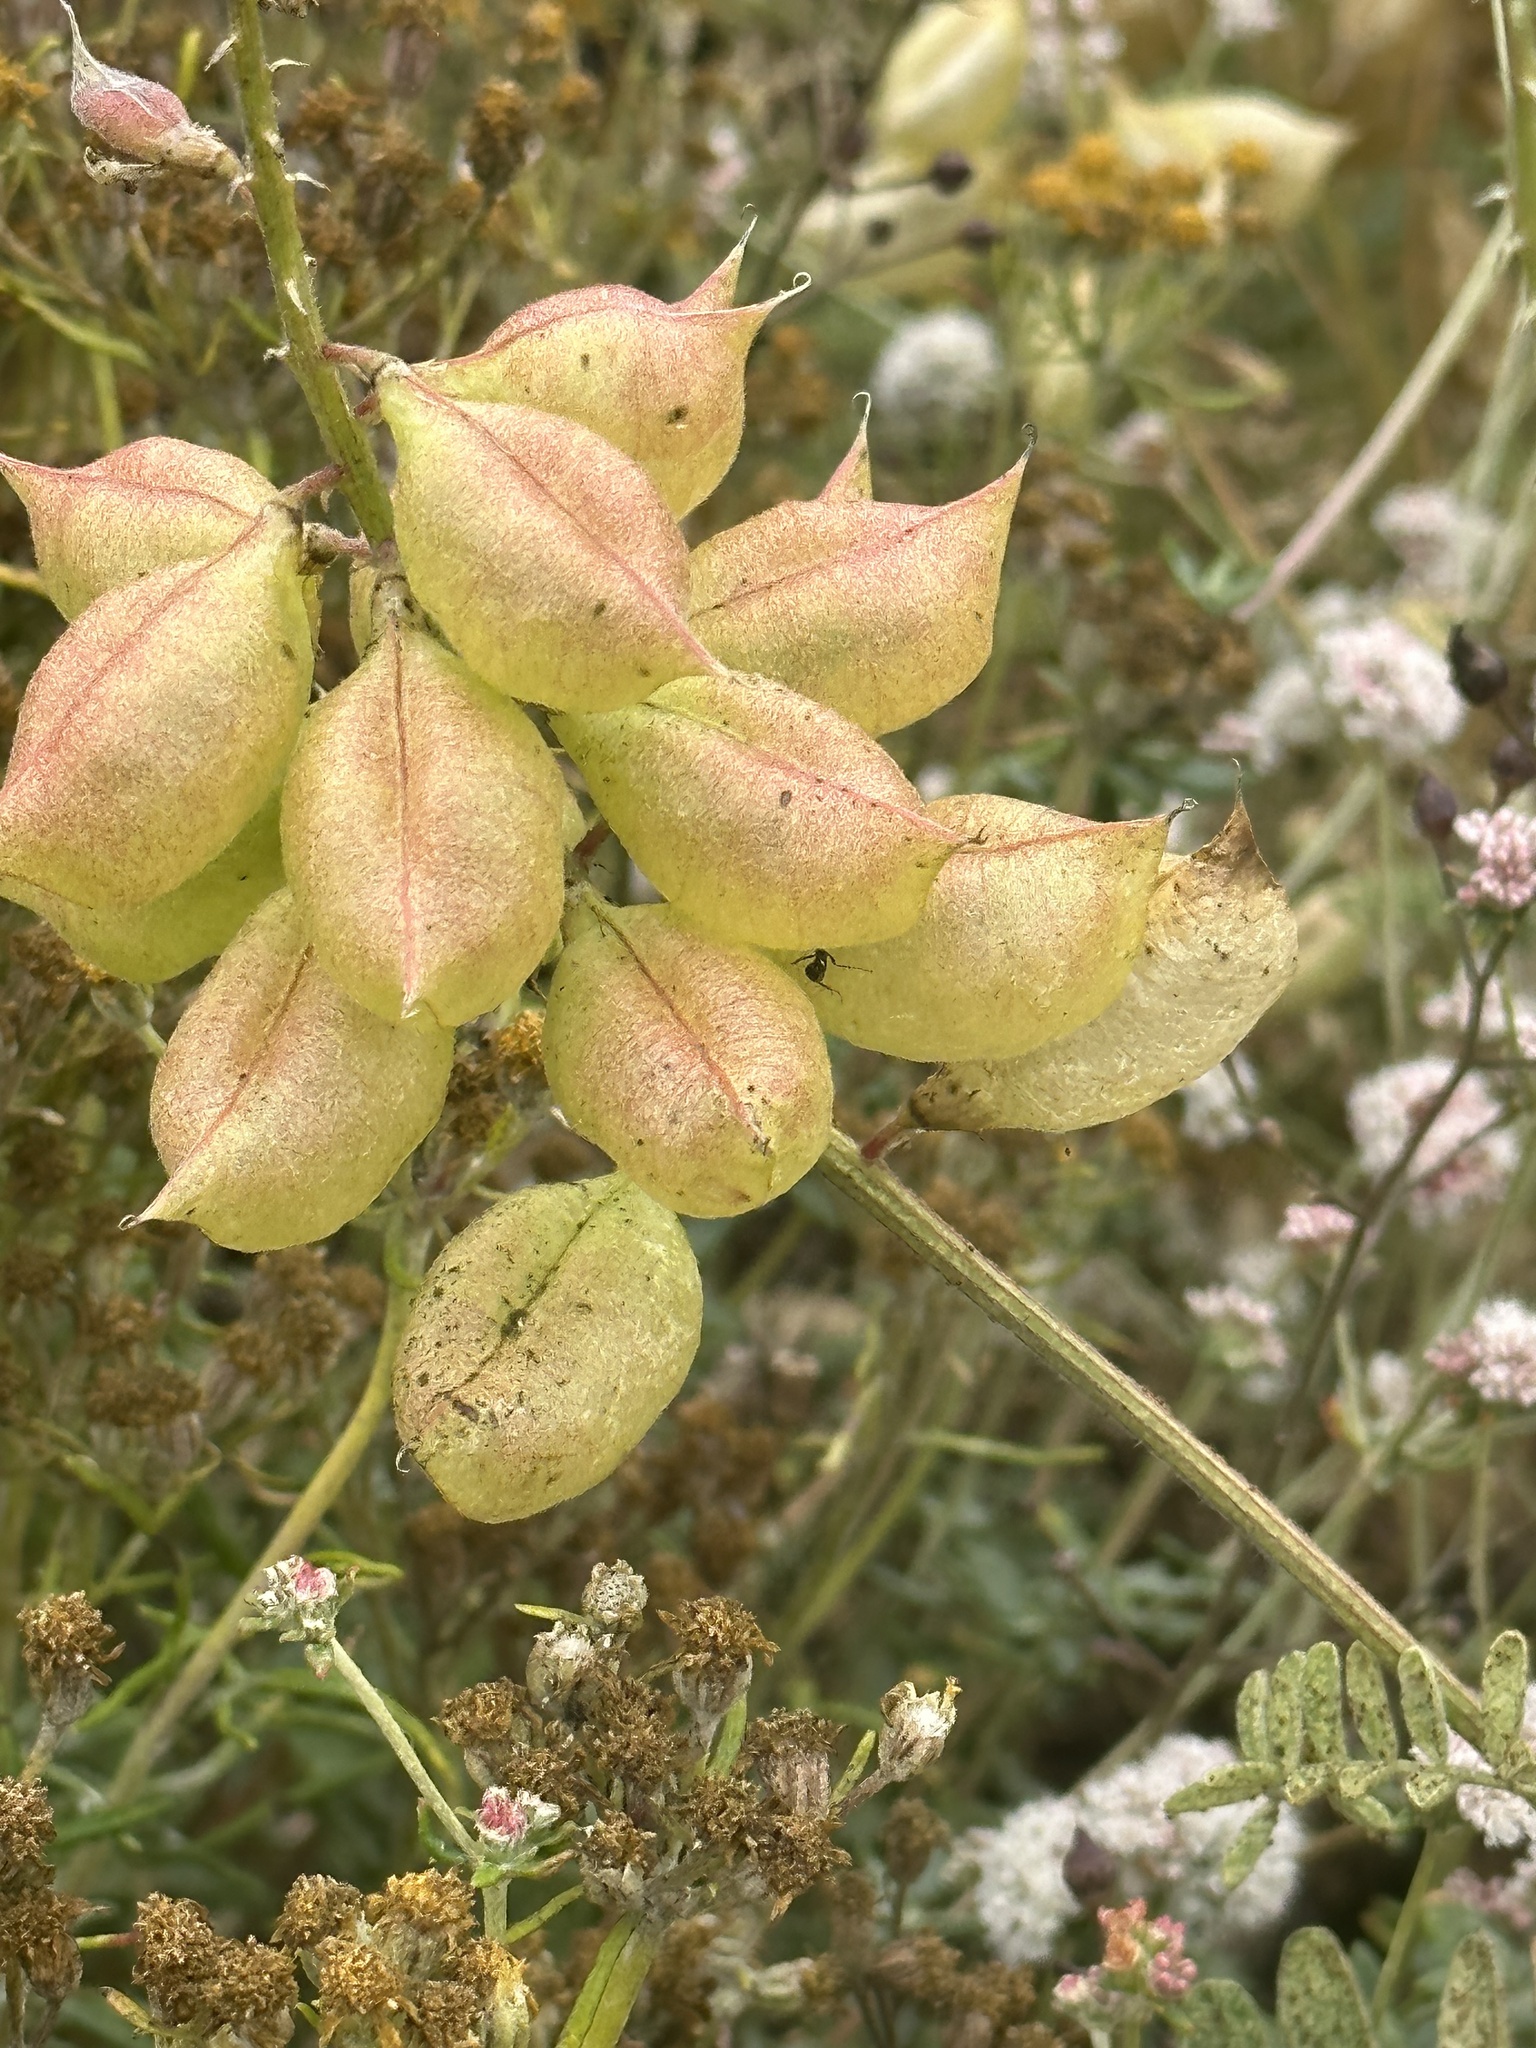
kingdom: Plantae
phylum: Tracheophyta
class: Magnoliopsida
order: Fabales
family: Fabaceae
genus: Astragalus
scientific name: Astragalus nuttallii
